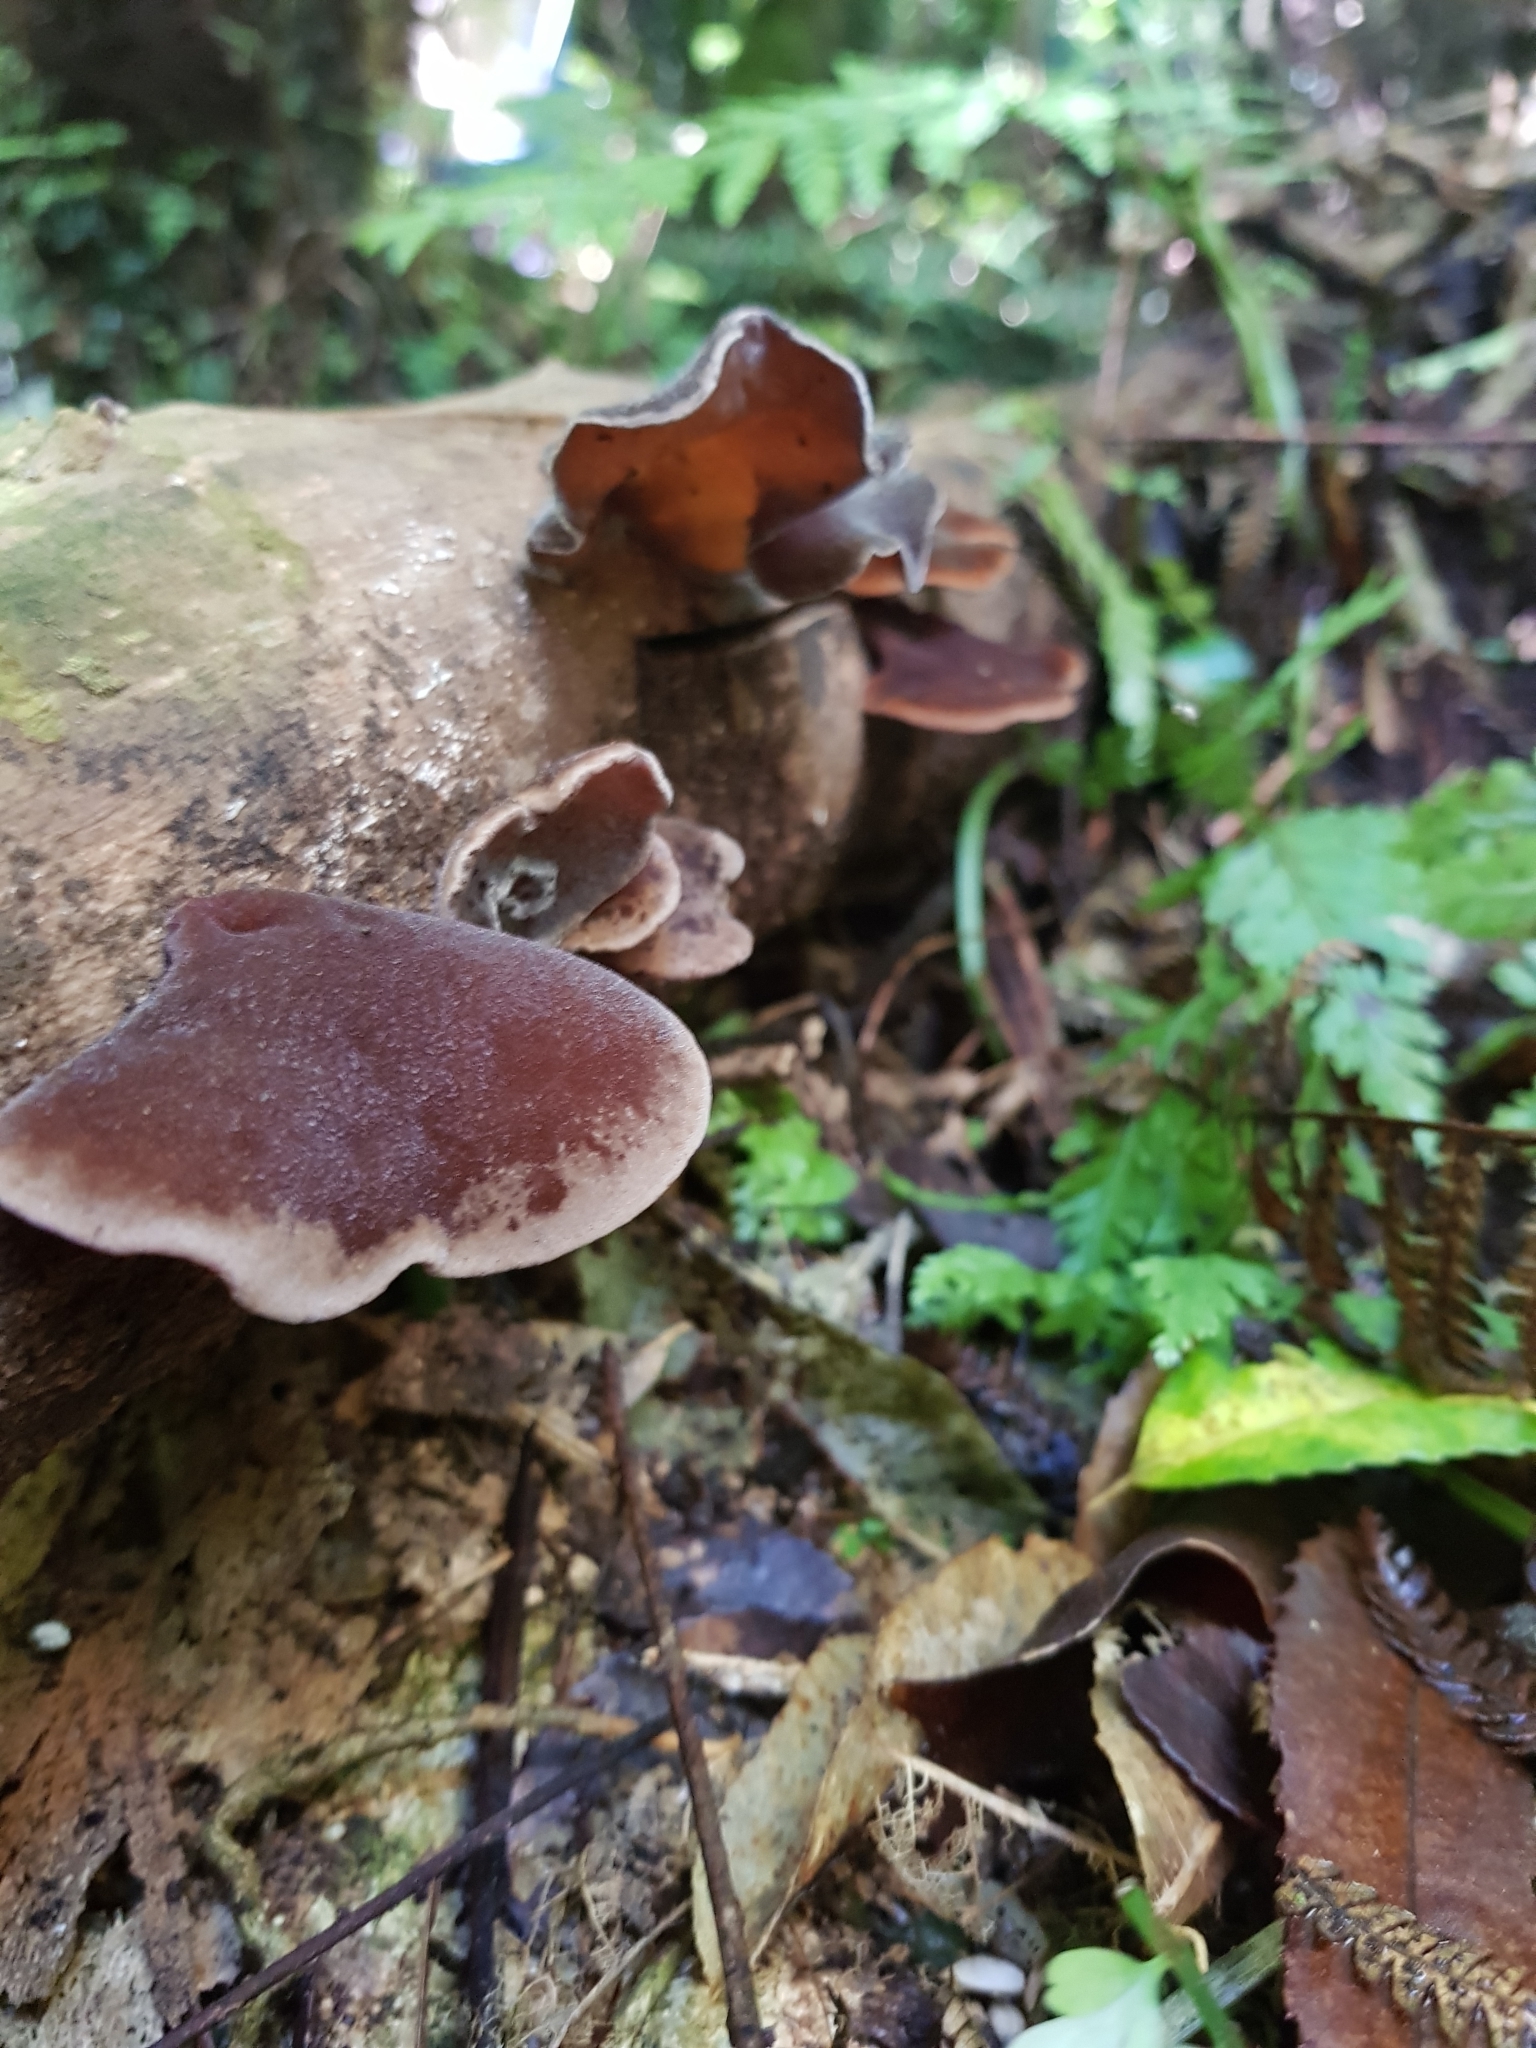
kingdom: Fungi
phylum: Basidiomycota
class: Agaricomycetes
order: Auriculariales
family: Auriculariaceae
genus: Auricularia
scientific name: Auricularia cornea
